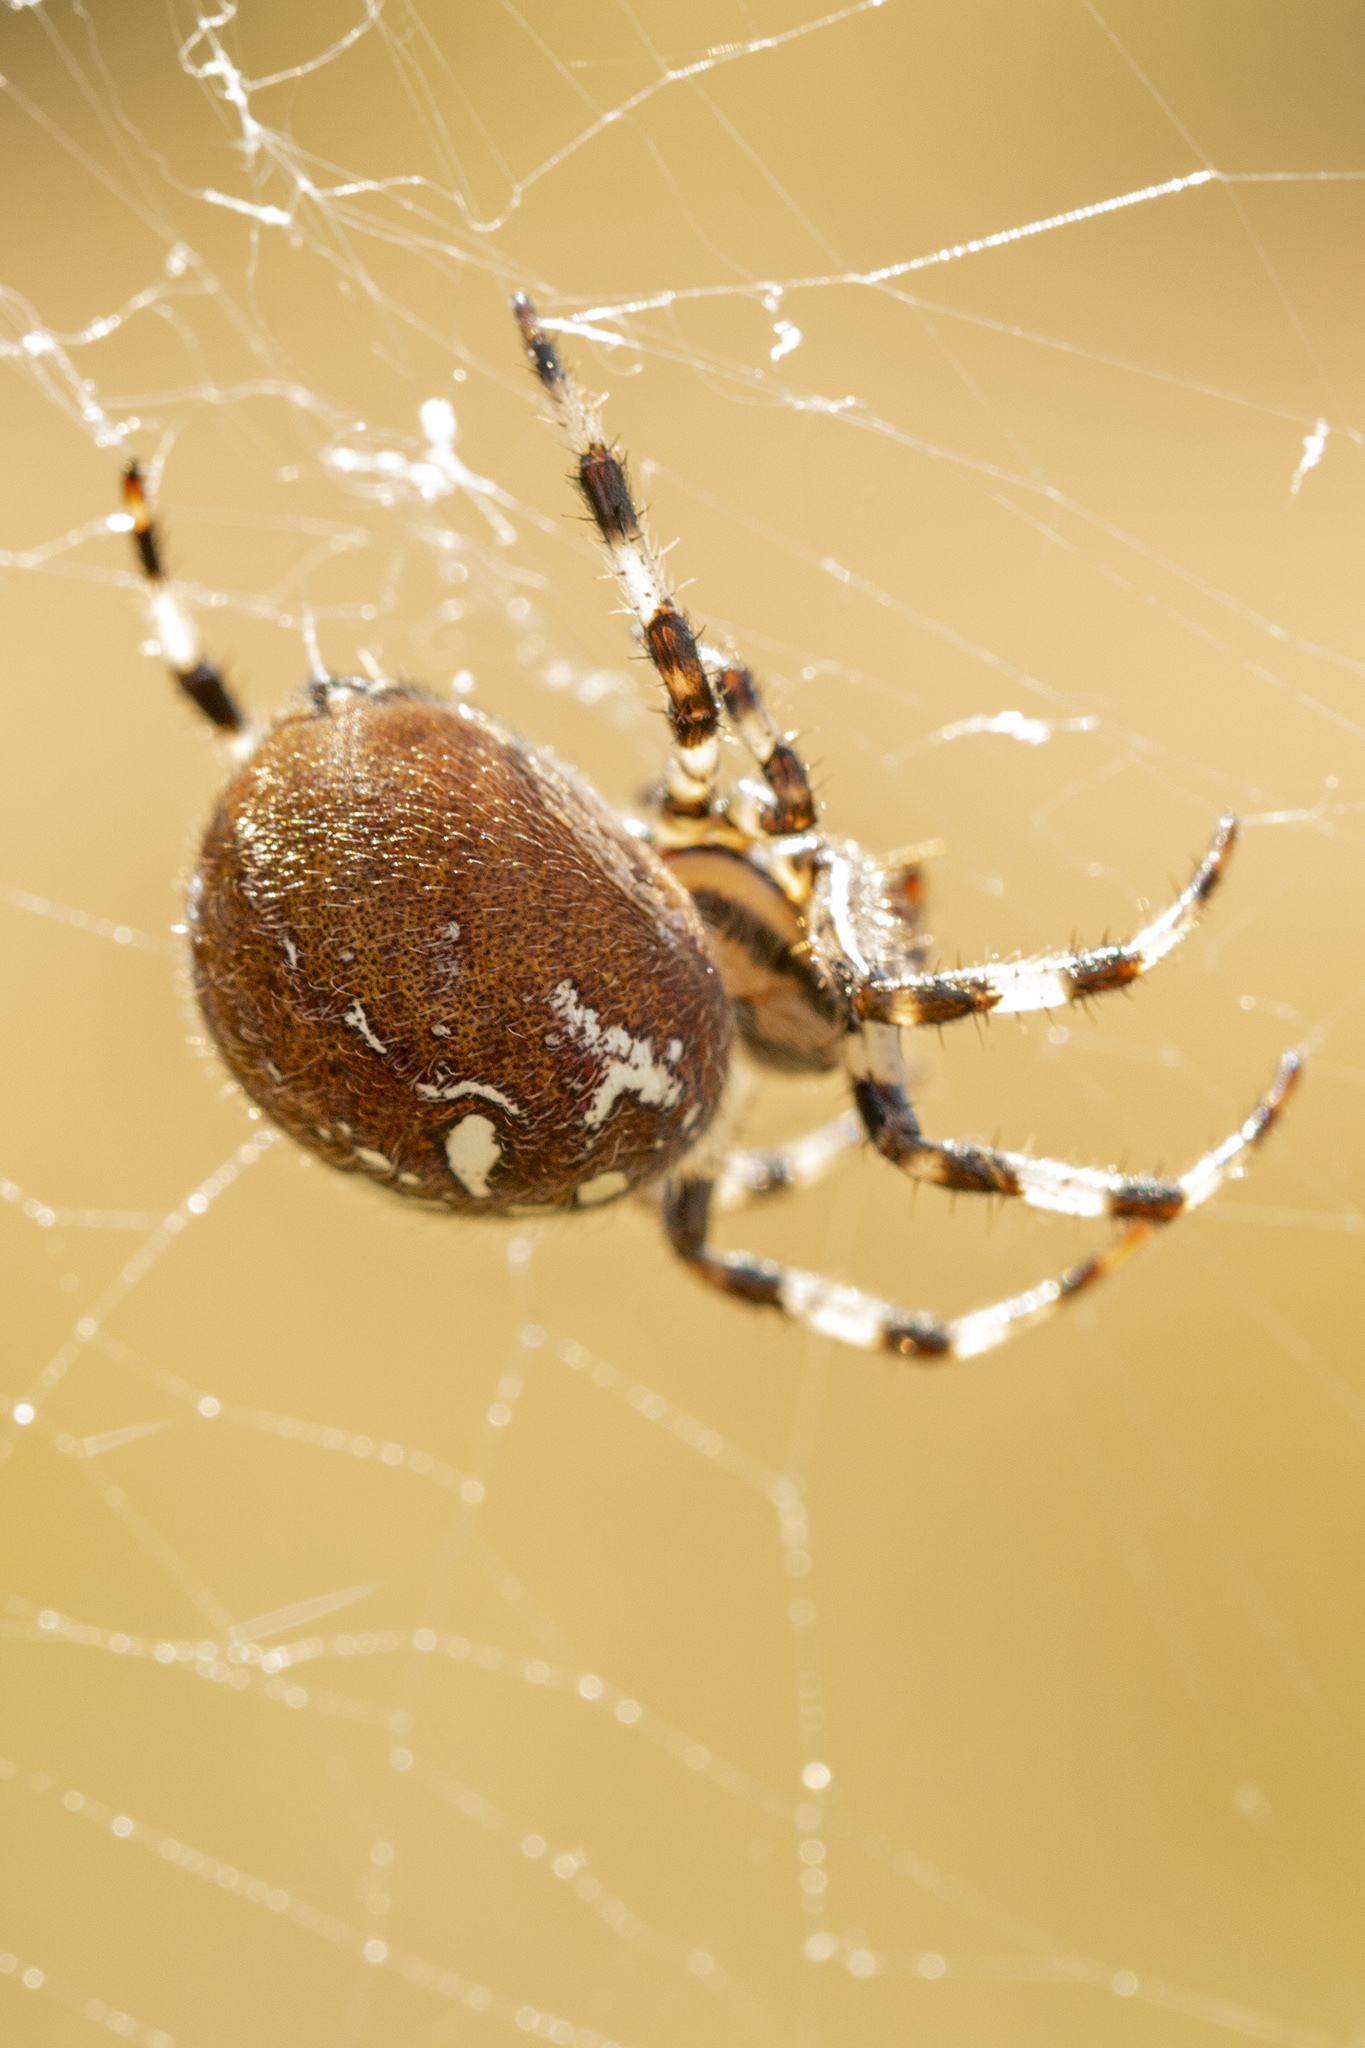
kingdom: Animalia
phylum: Arthropoda
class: Arachnida
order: Araneae
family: Araneidae
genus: Araneus
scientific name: Araneus quadratus
